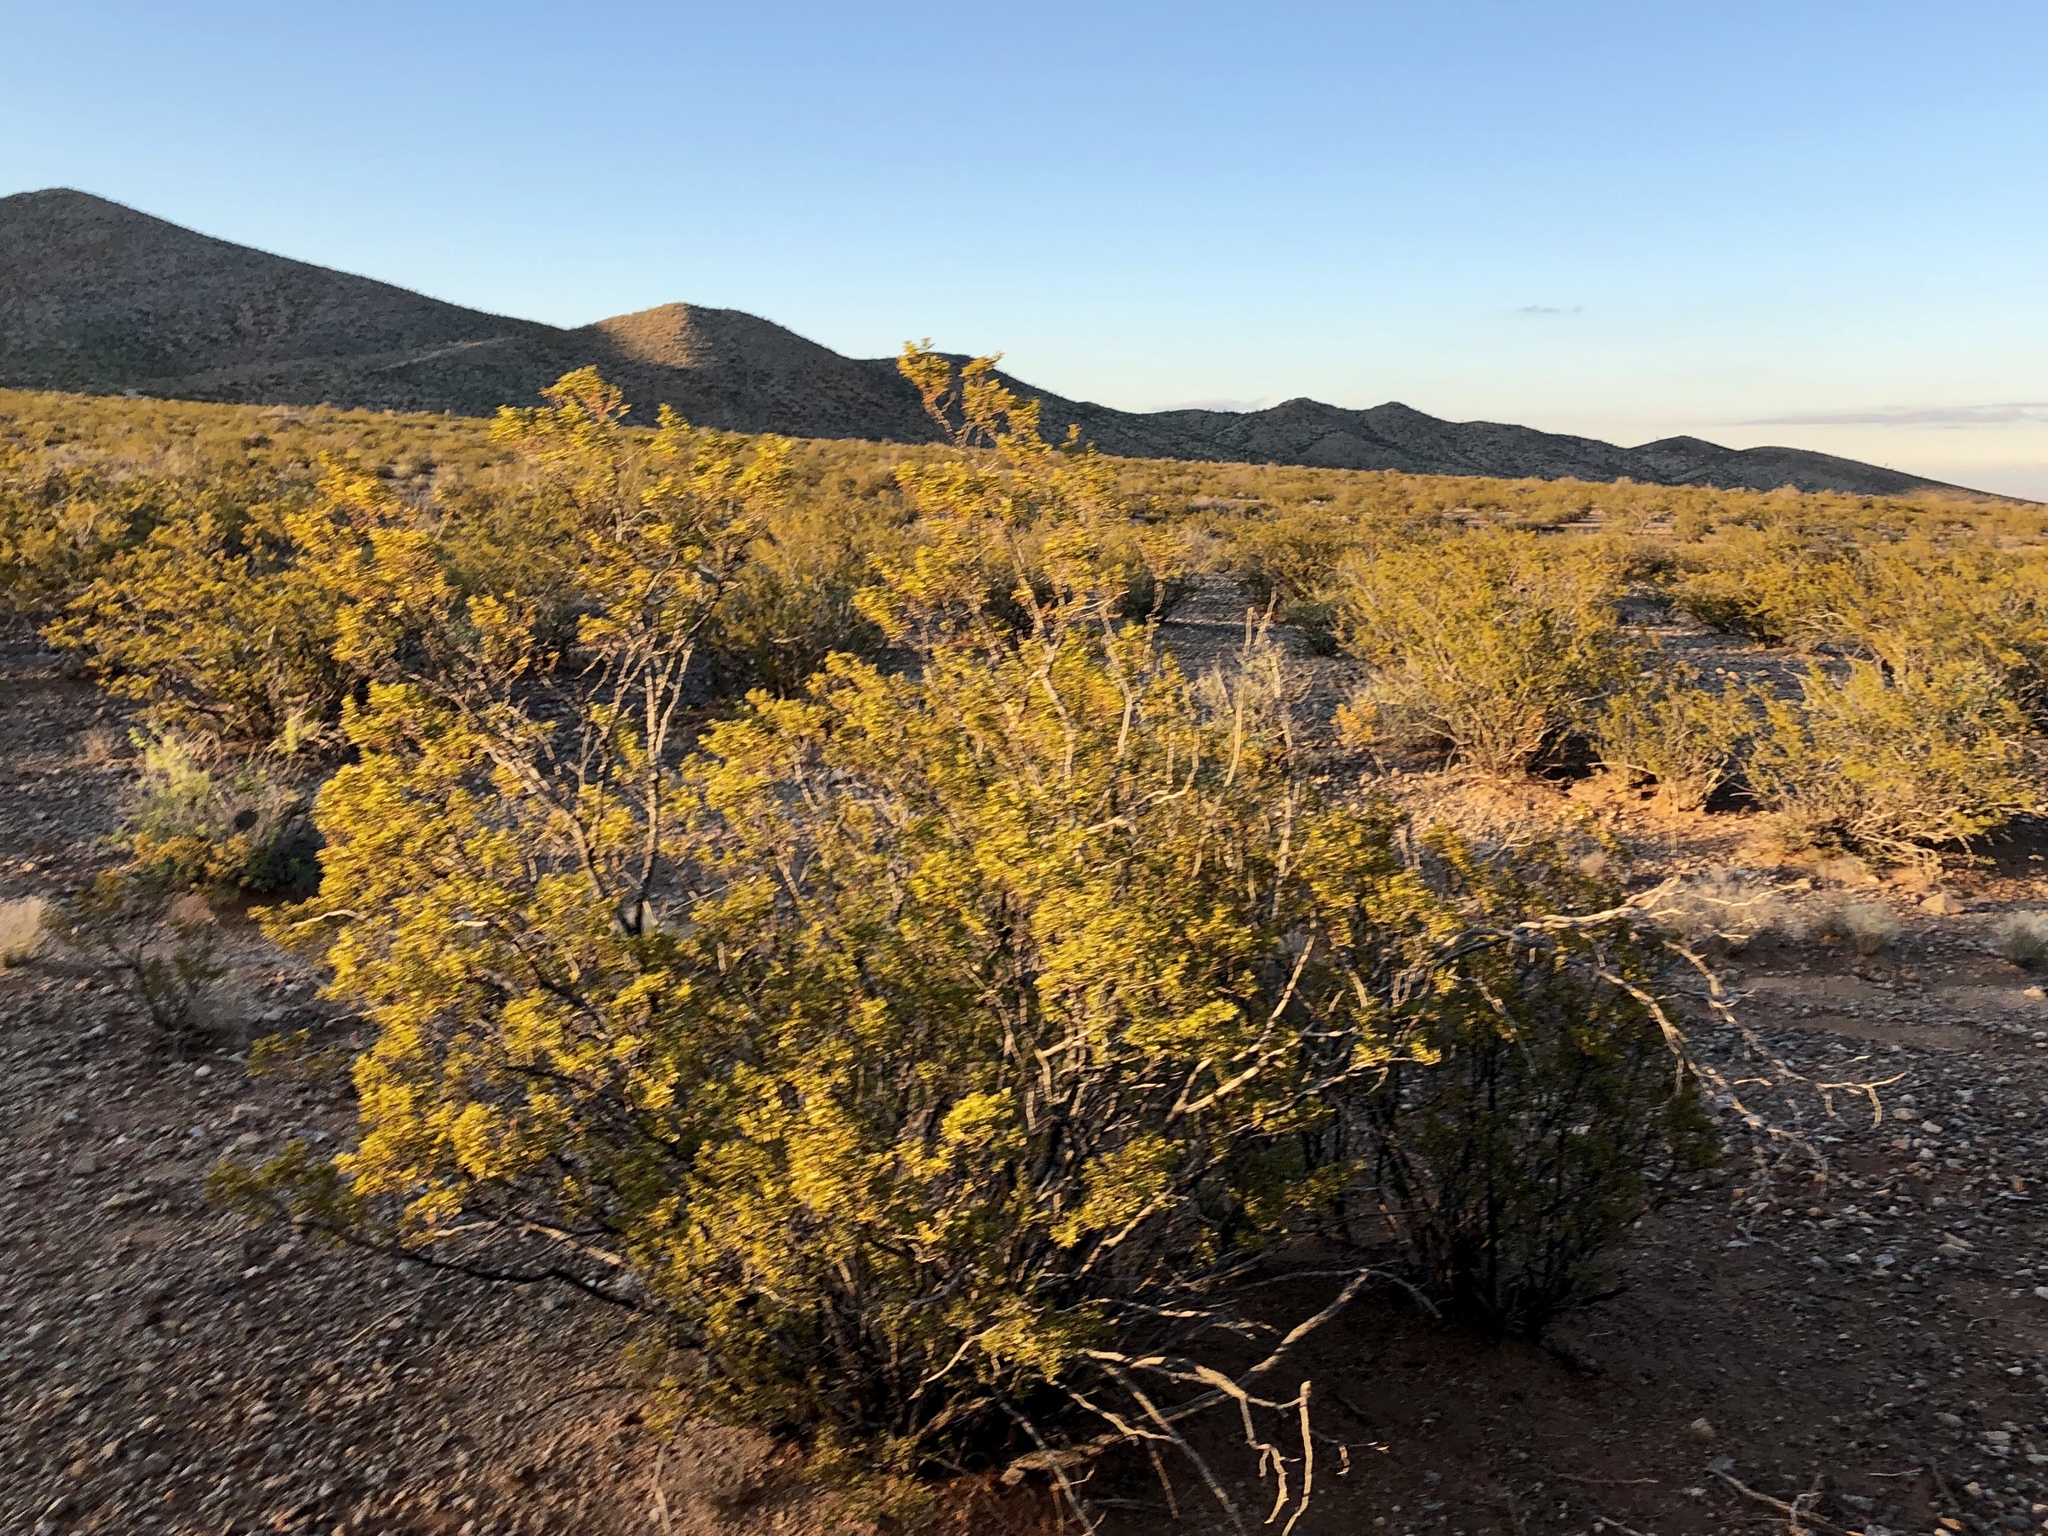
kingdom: Plantae
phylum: Tracheophyta
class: Magnoliopsida
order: Zygophyllales
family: Zygophyllaceae
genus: Larrea
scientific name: Larrea tridentata
